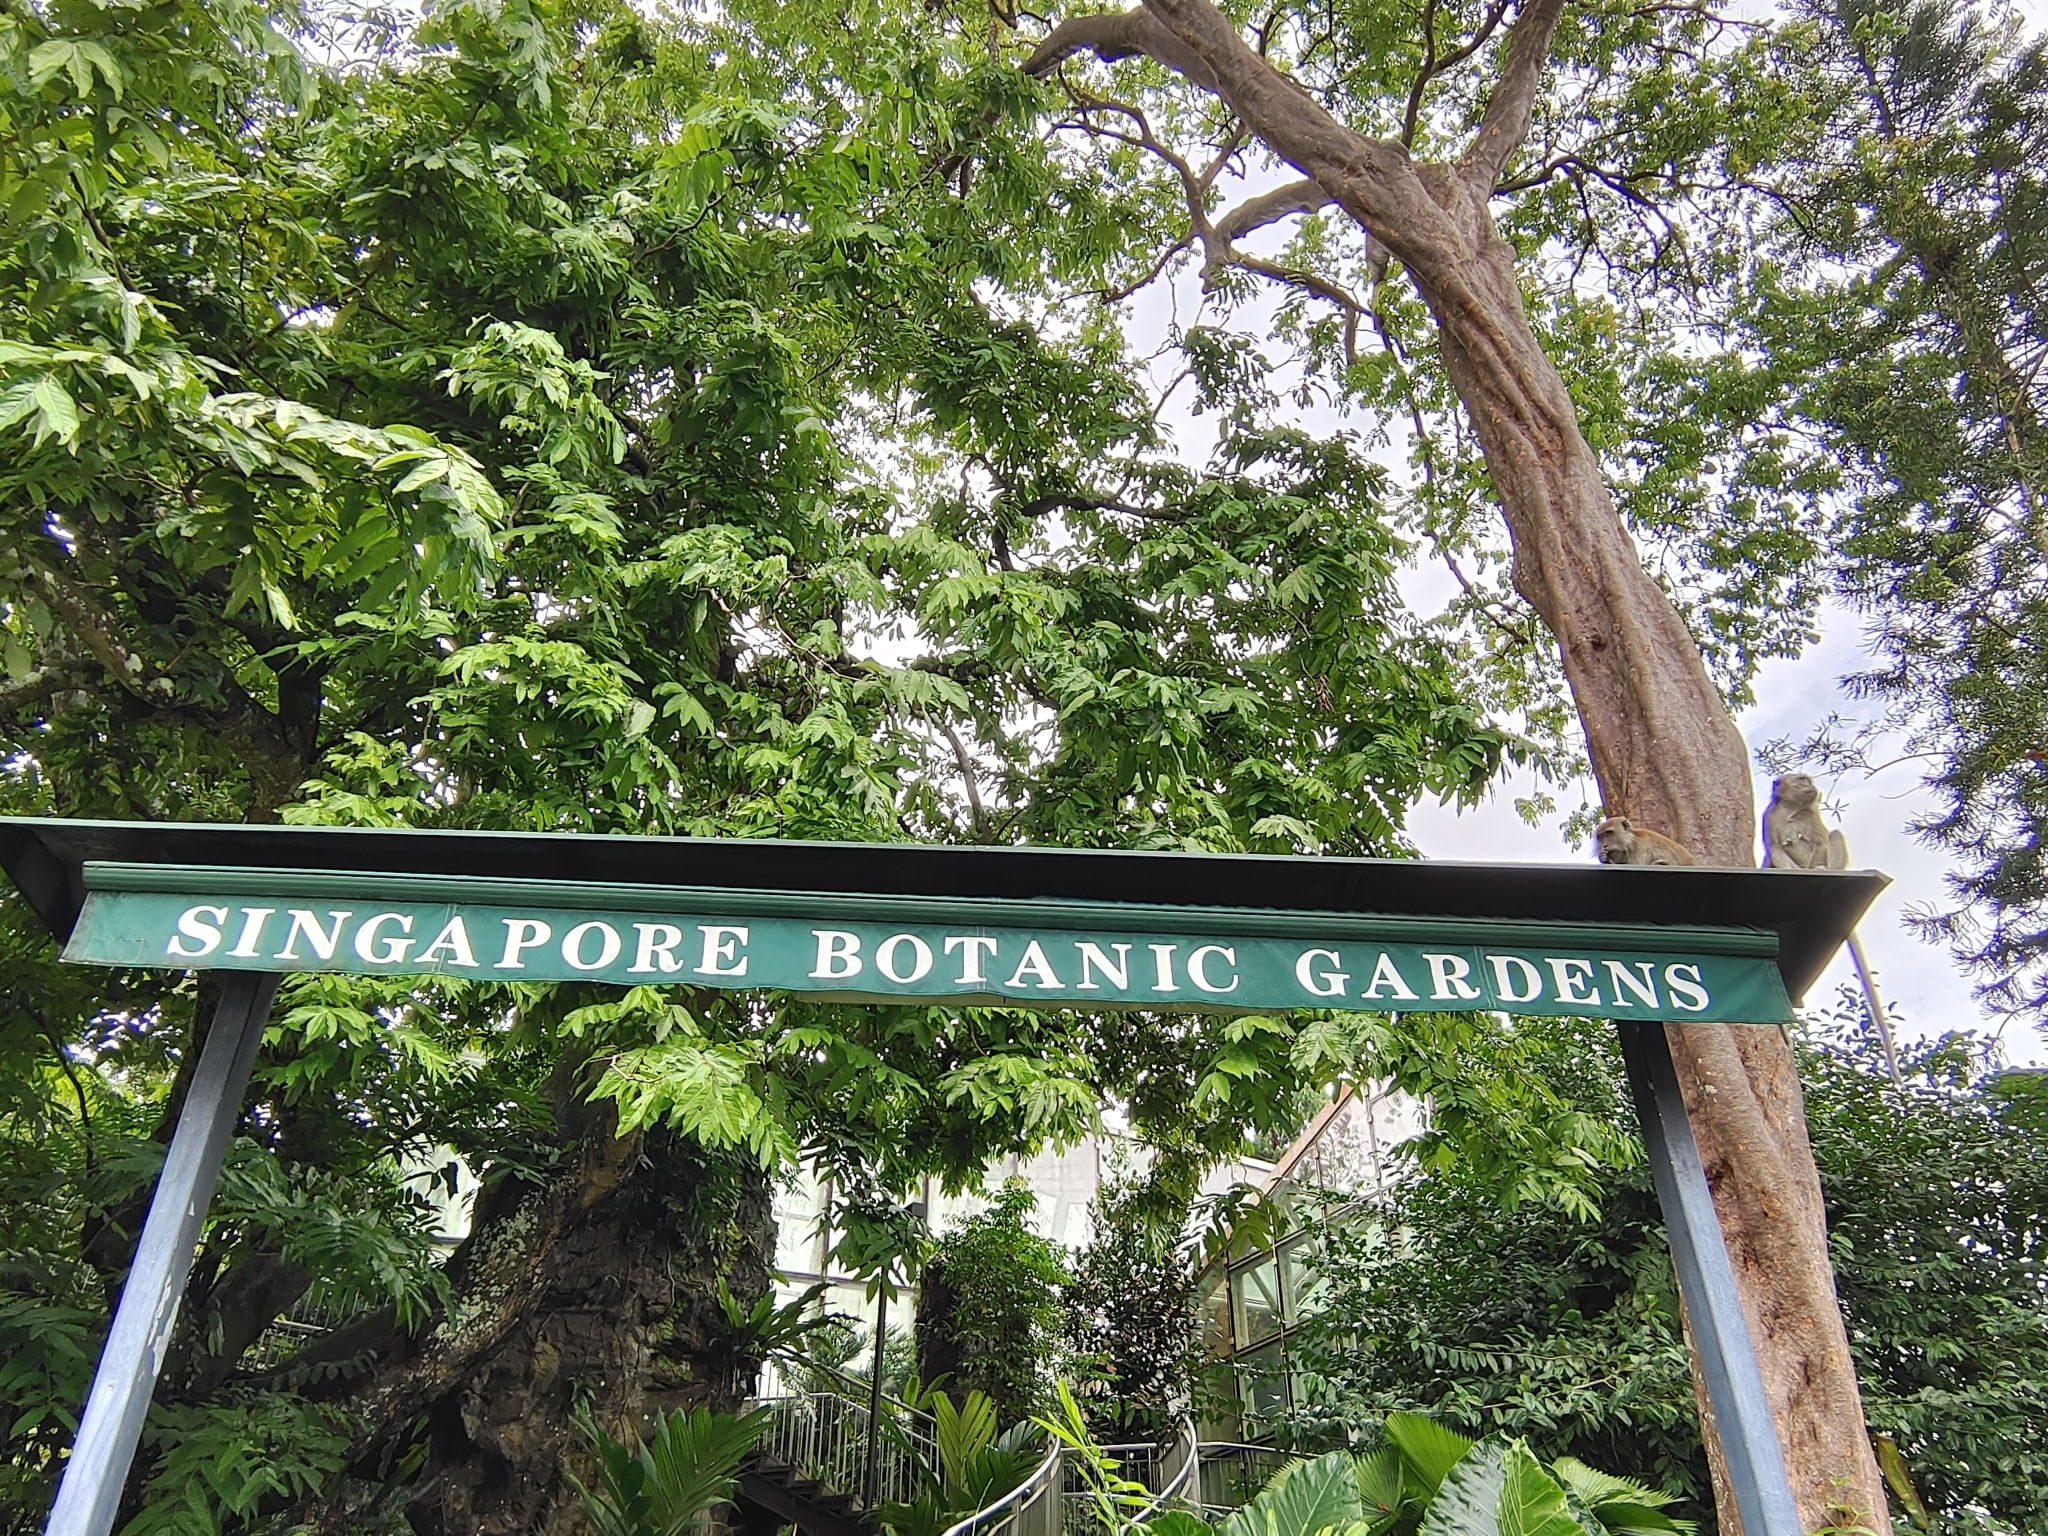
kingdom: Animalia
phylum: Chordata
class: Mammalia
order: Primates
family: Cercopithecidae
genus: Macaca
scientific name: Macaca fascicularis
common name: Crab-eating macaque
